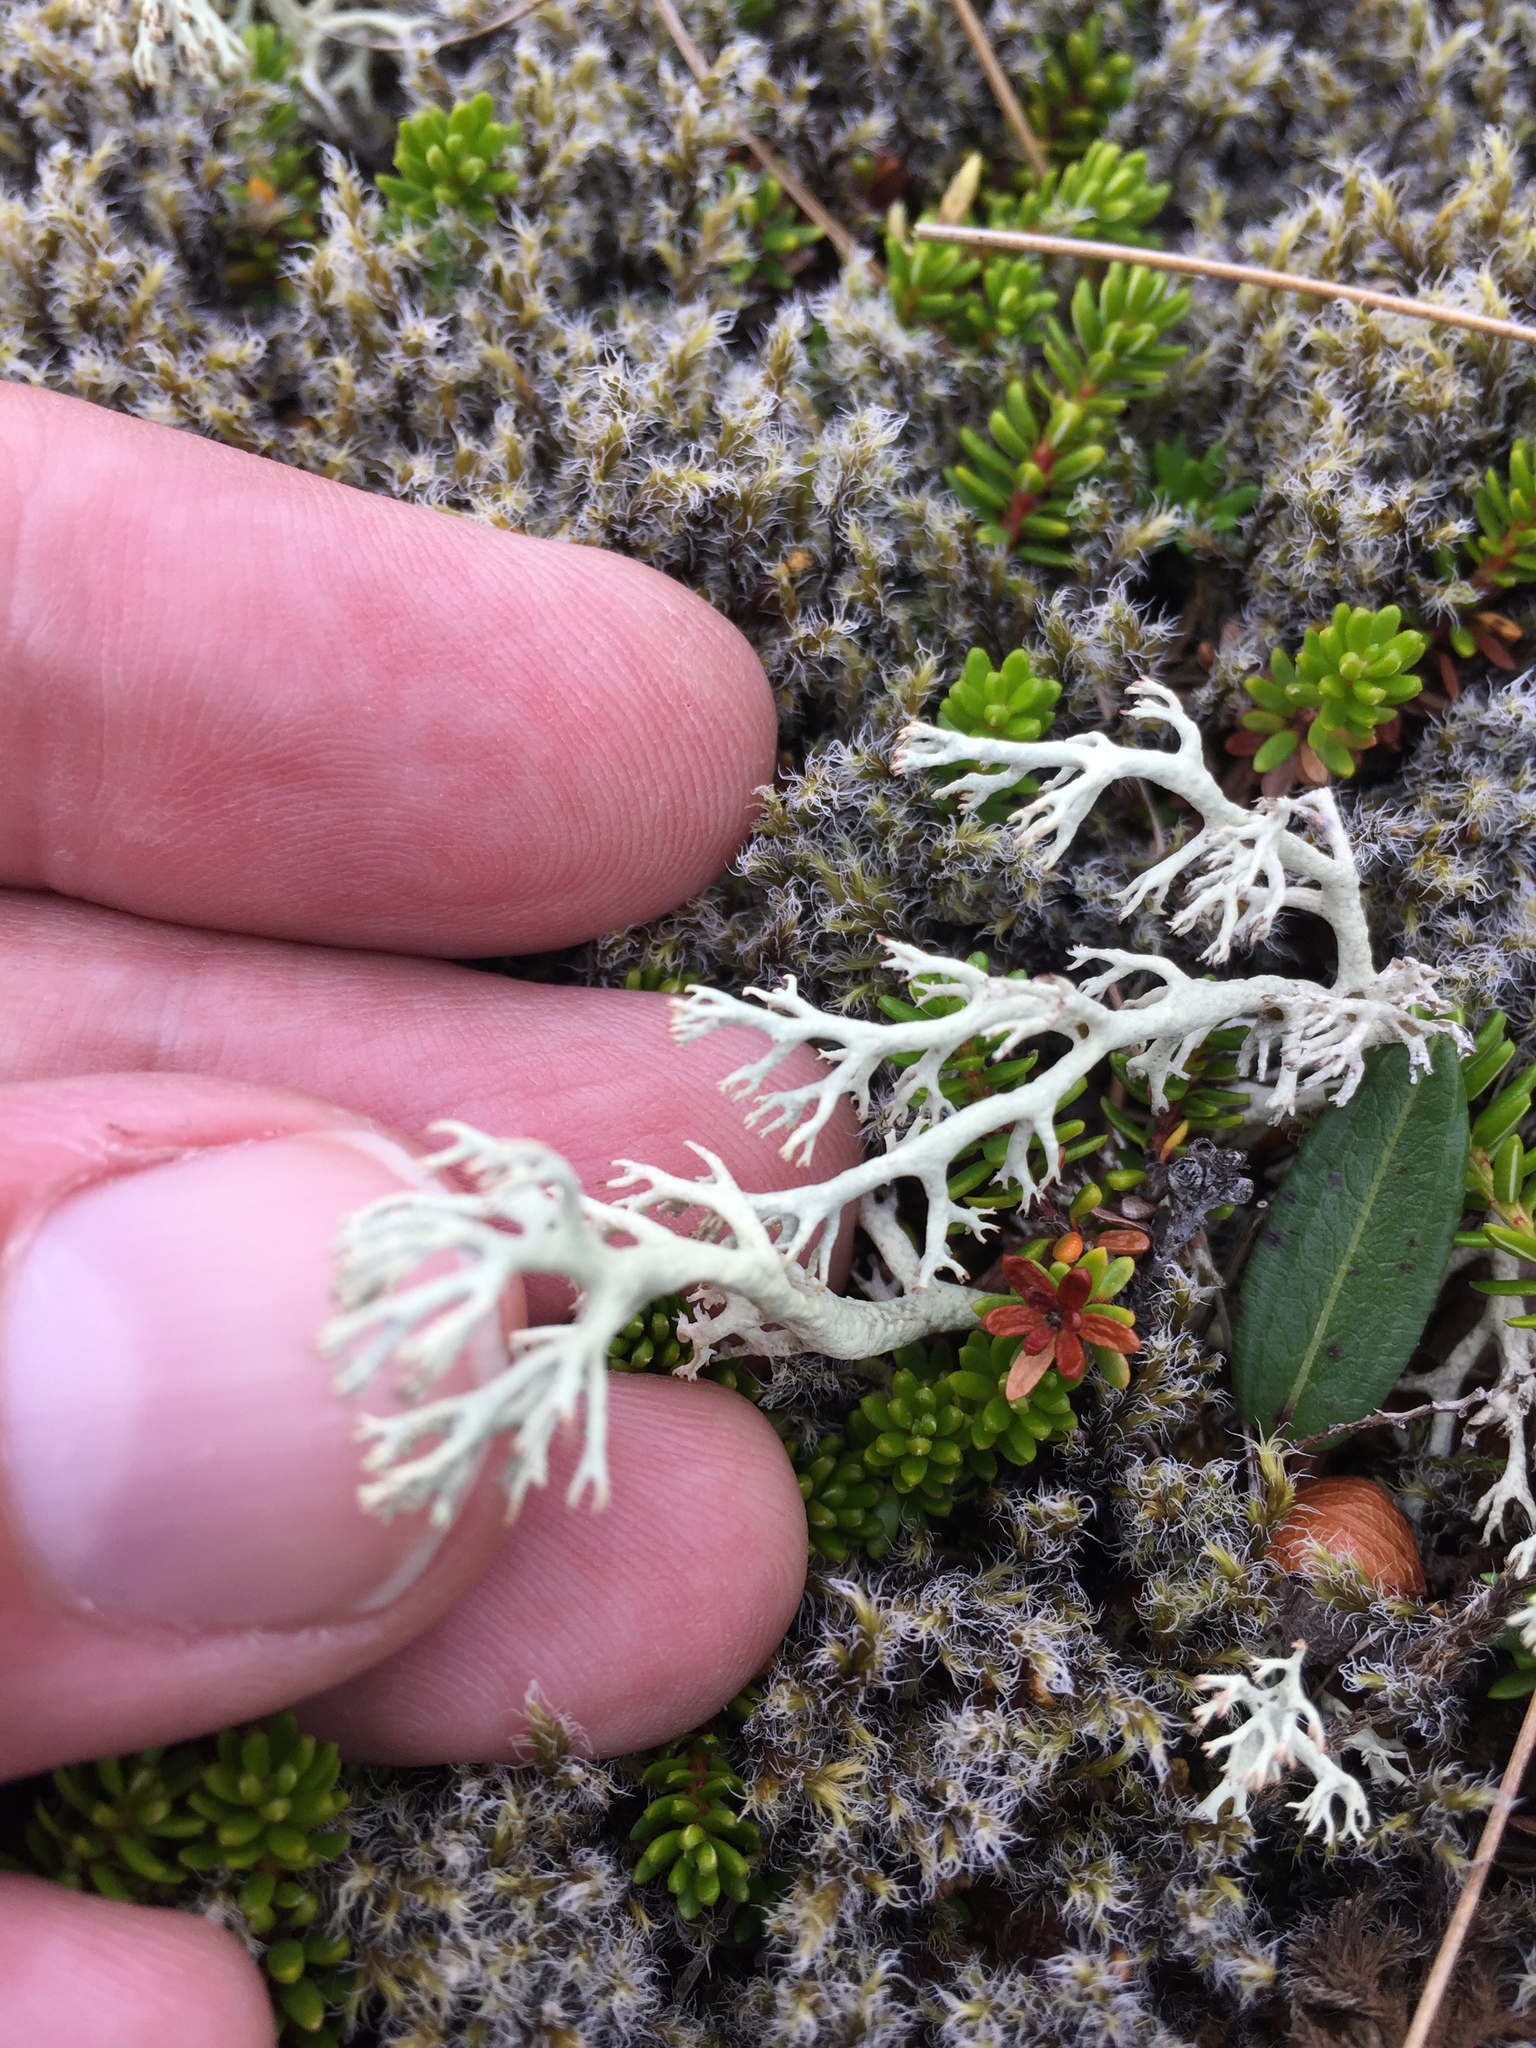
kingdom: Fungi
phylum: Ascomycota
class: Lecanoromycetes
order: Lecanorales
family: Cladoniaceae
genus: Cladonia
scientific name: Cladonia rangiferina
